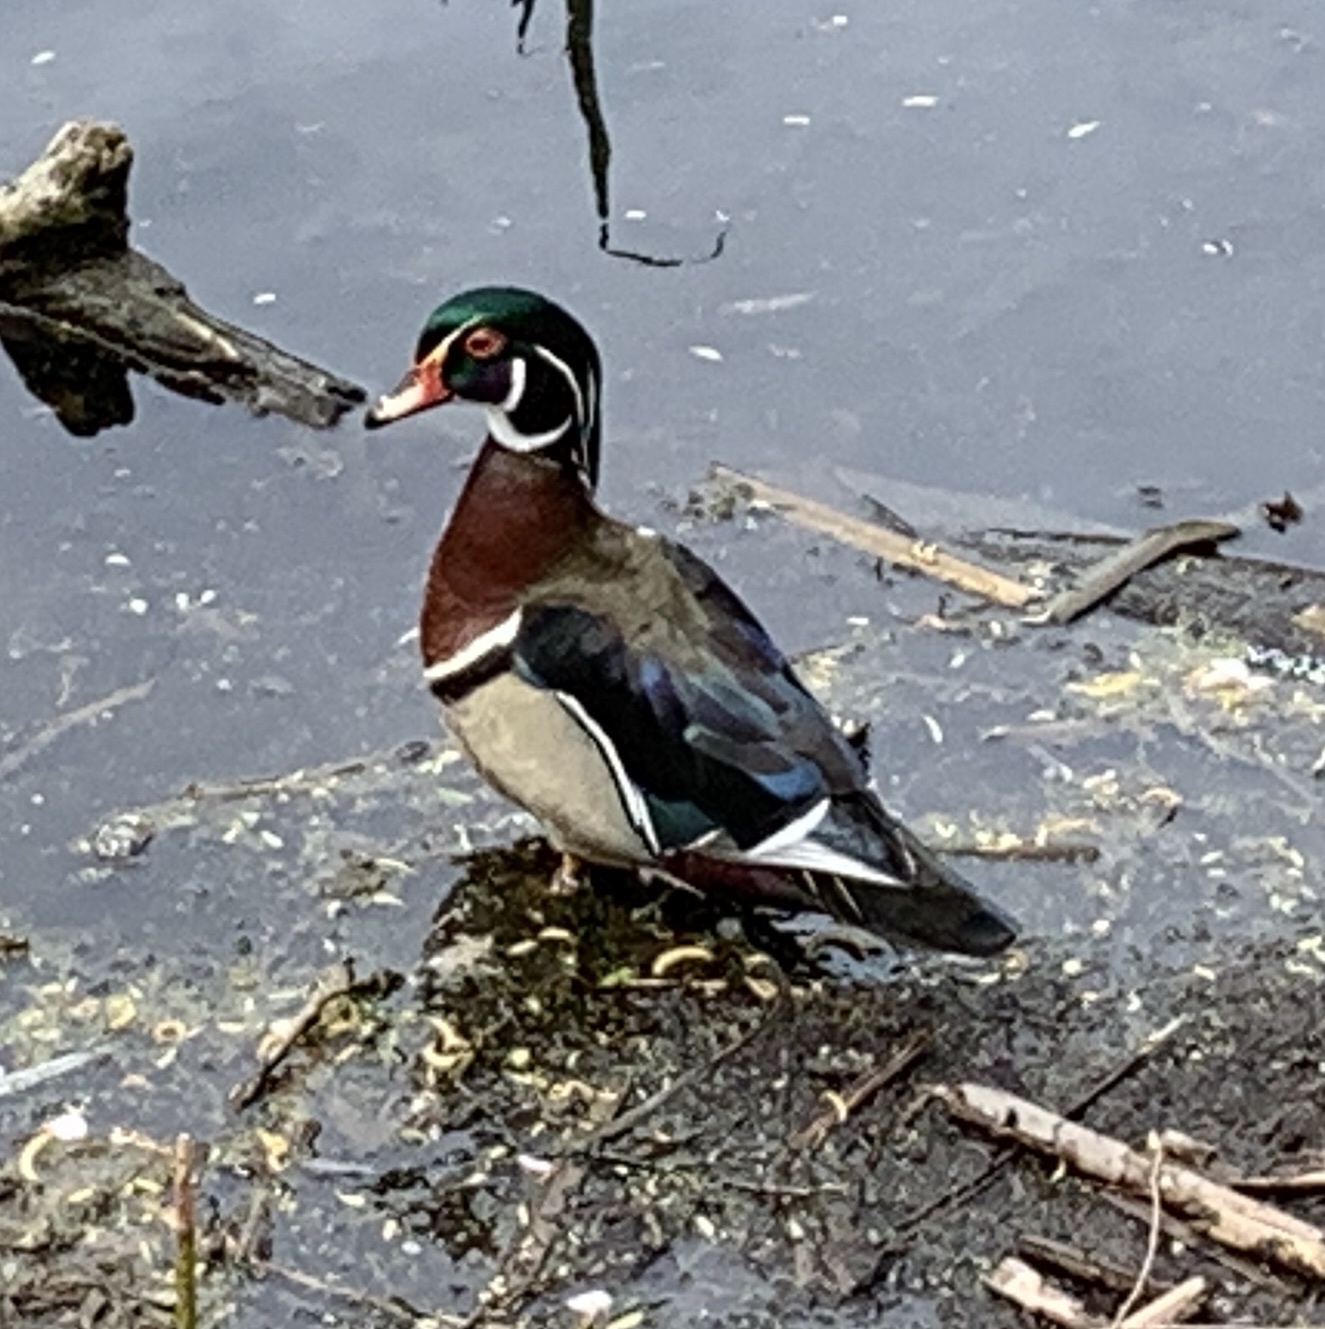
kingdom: Animalia
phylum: Chordata
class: Aves
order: Anseriformes
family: Anatidae
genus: Aix
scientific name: Aix sponsa
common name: Wood duck
